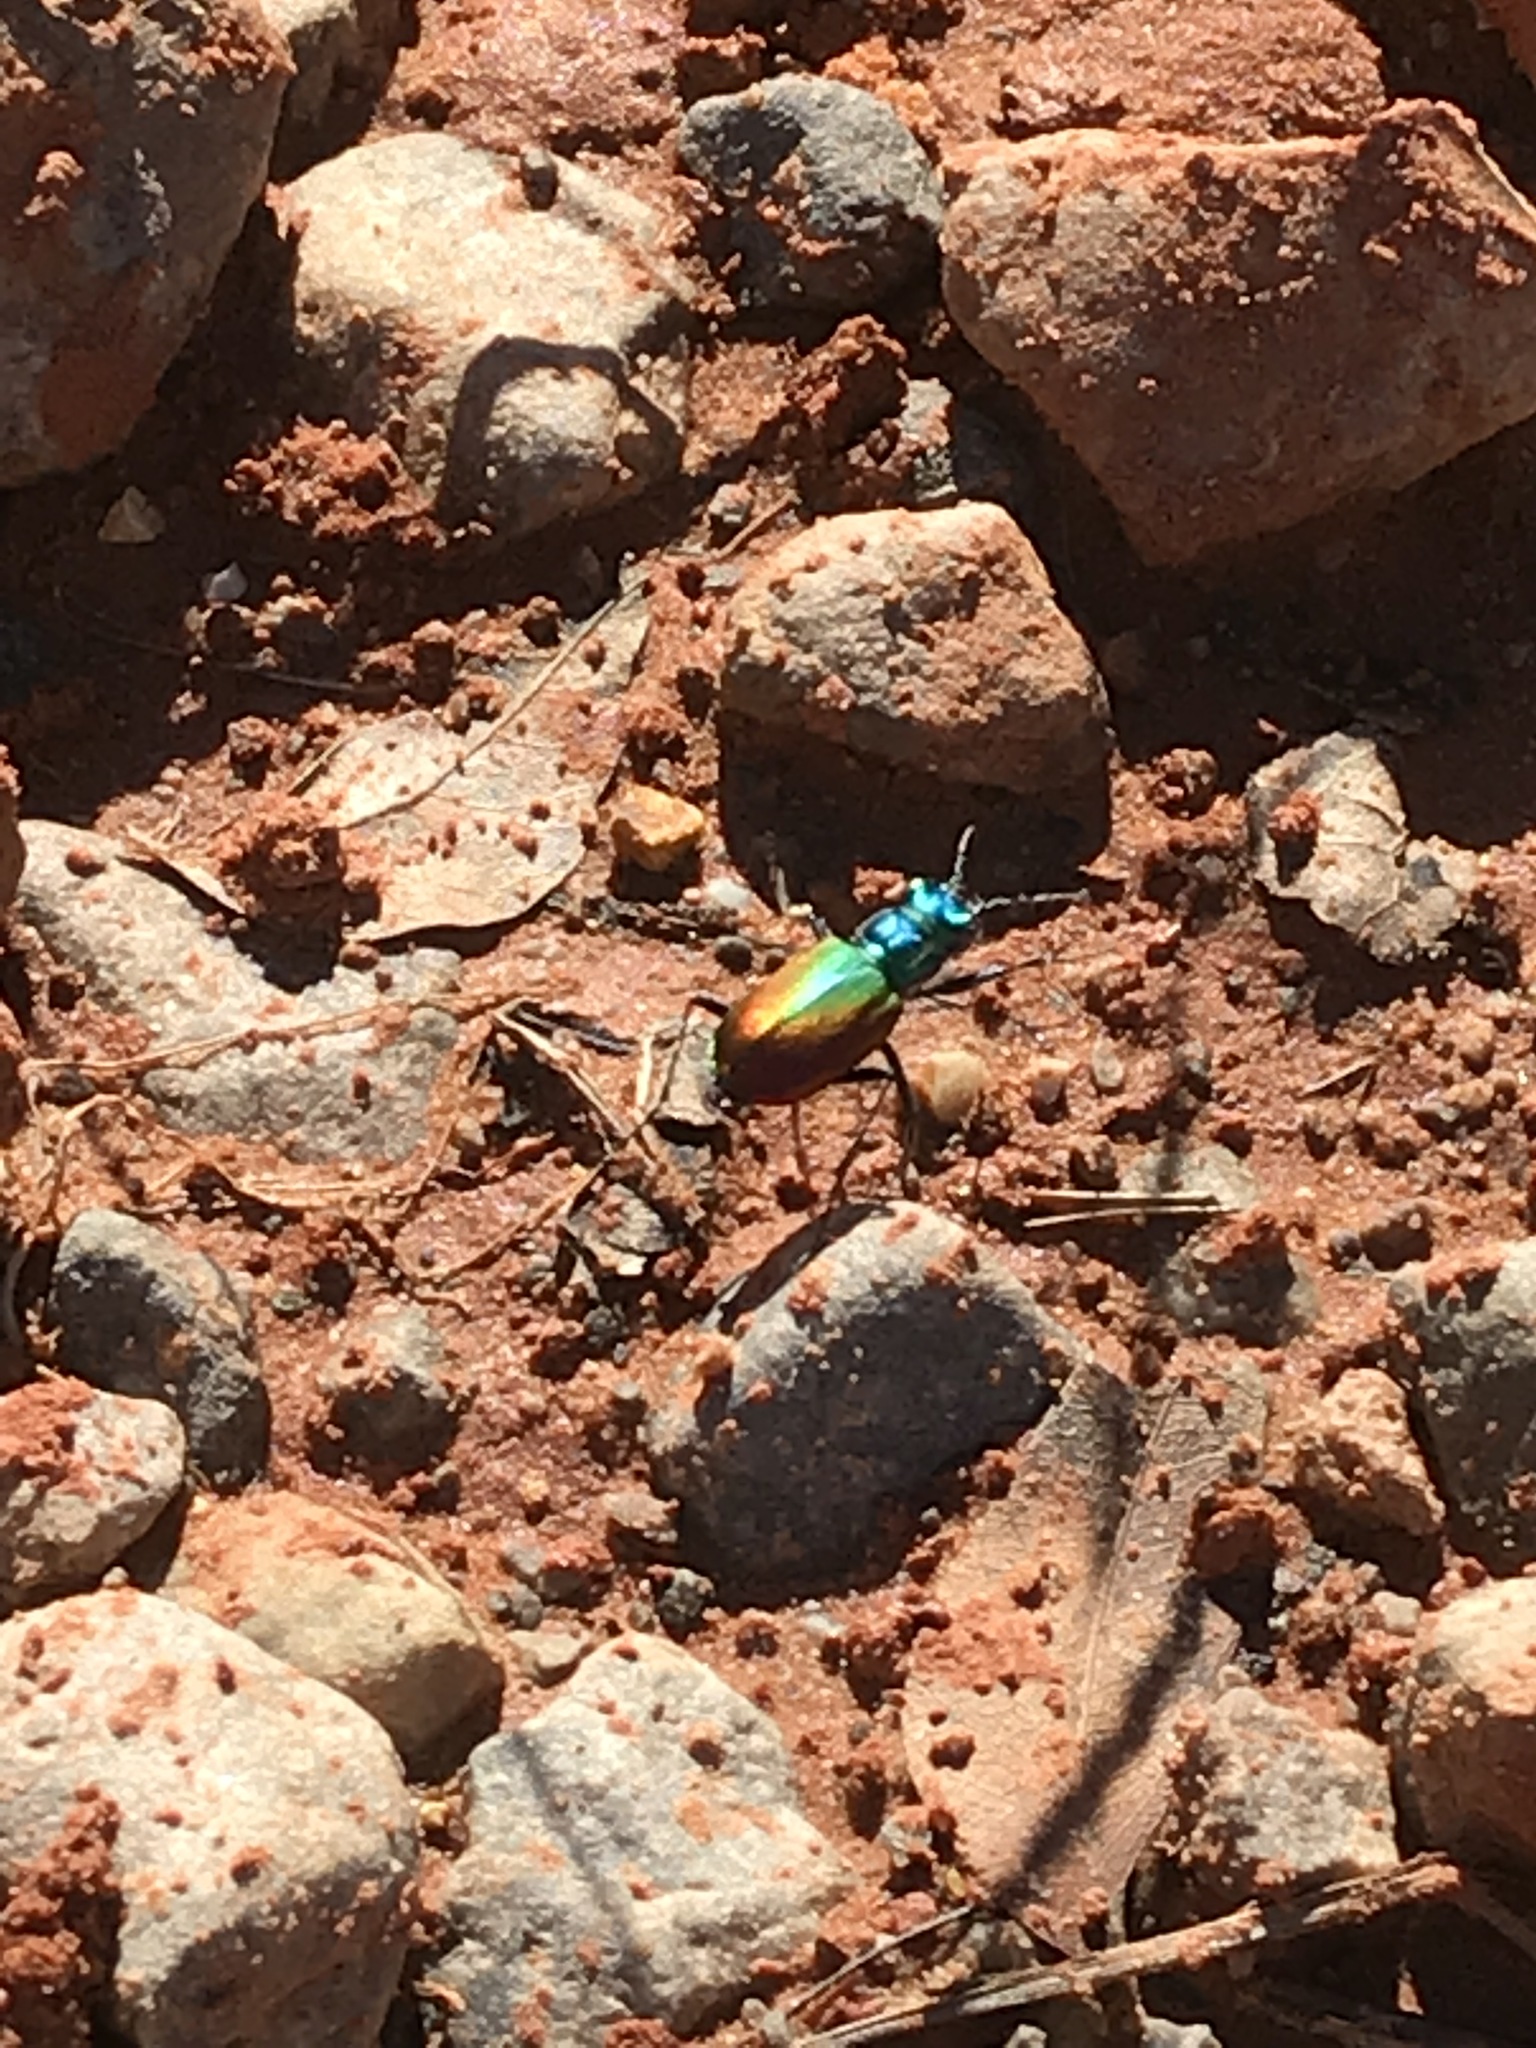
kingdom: Animalia
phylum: Arthropoda
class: Insecta
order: Coleoptera
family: Carabidae
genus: Cicindela
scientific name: Cicindela scutellaris
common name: Festive tiger beetle
